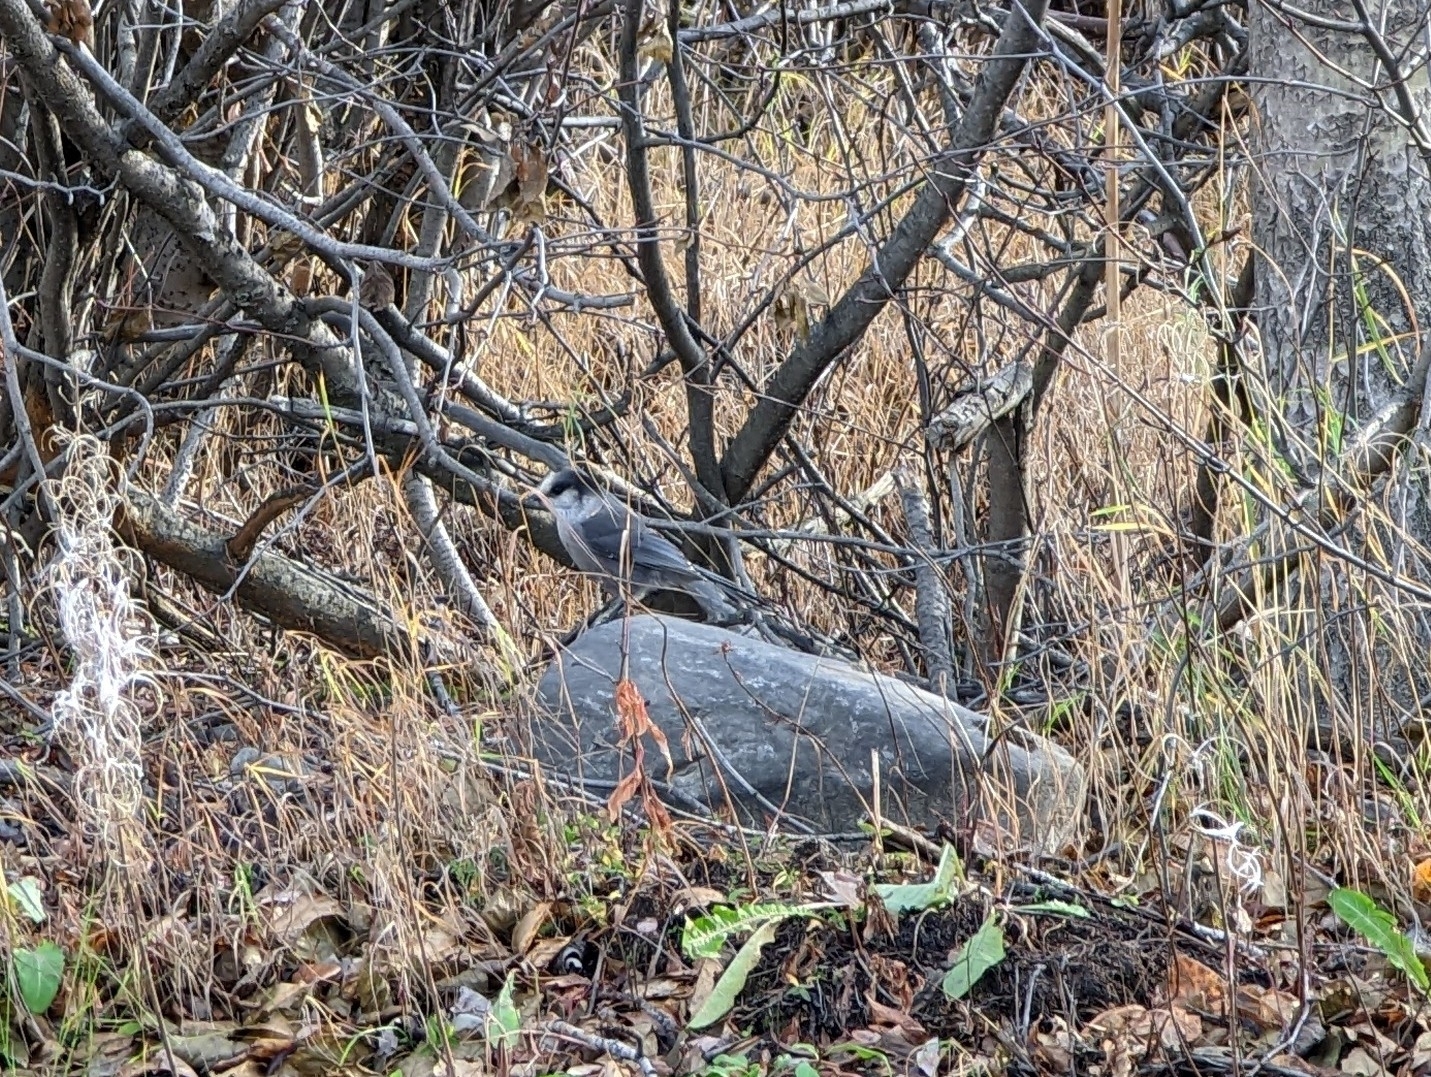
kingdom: Animalia
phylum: Chordata
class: Aves
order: Passeriformes
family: Corvidae
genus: Perisoreus
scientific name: Perisoreus canadensis
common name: Gray jay
